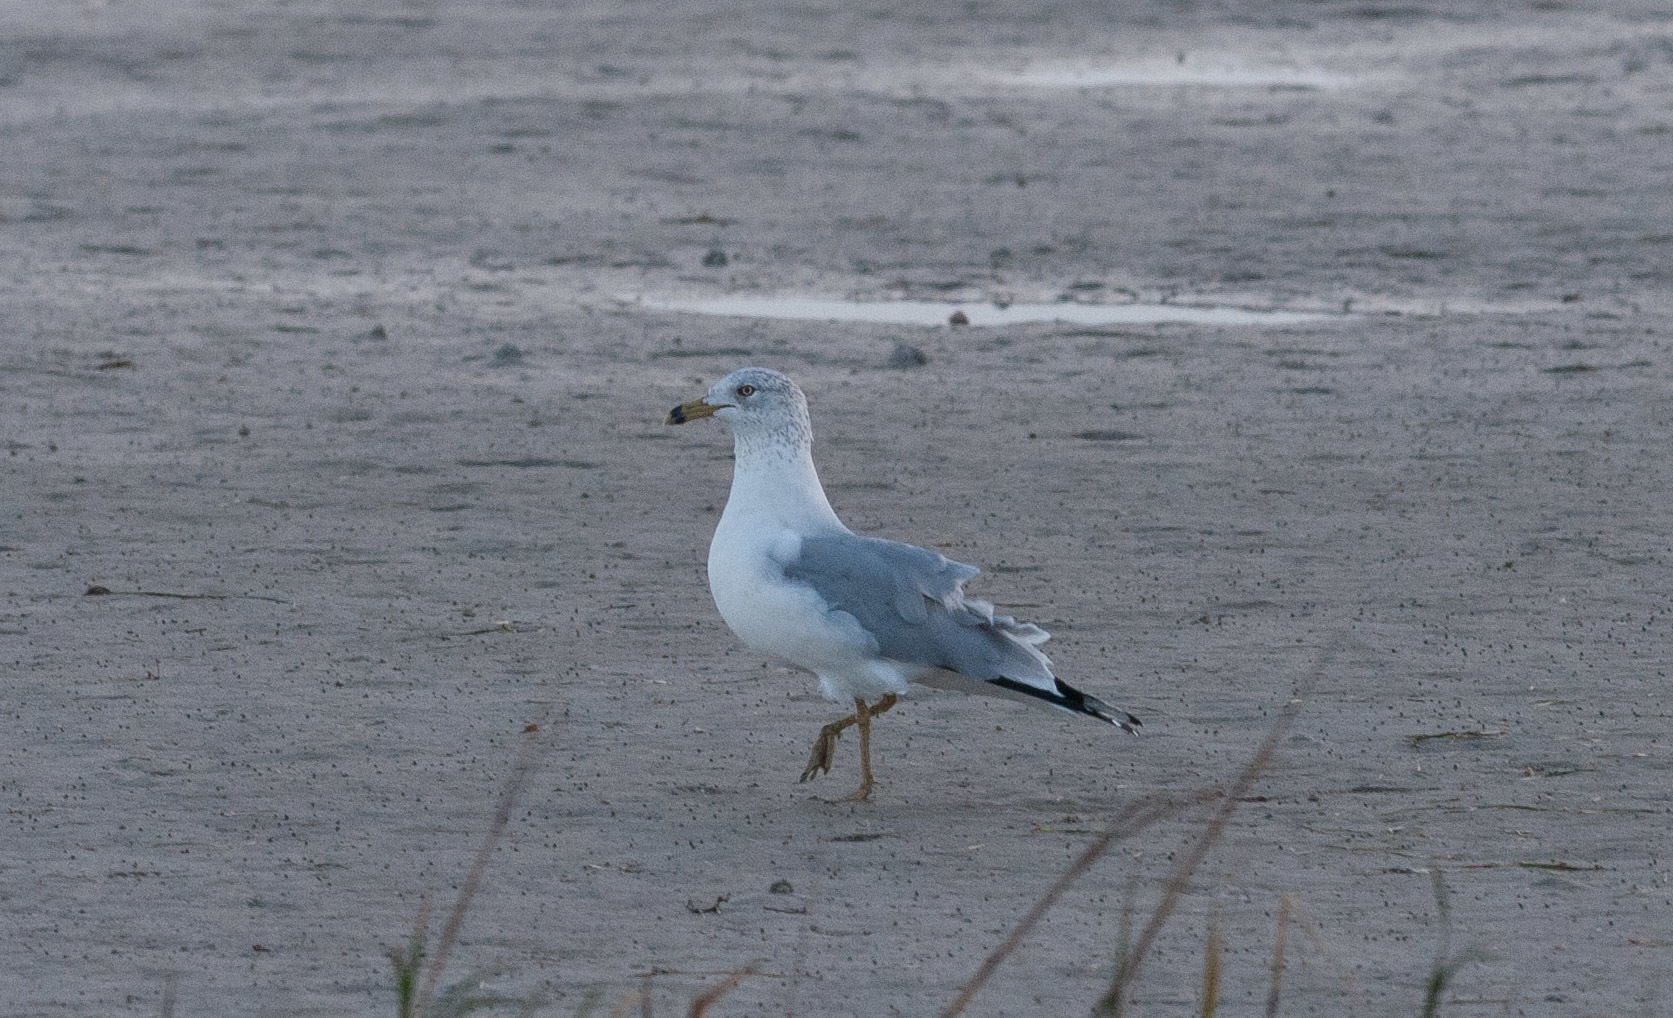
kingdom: Animalia
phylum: Chordata
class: Aves
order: Charadriiformes
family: Laridae
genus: Larus
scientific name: Larus delawarensis
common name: Ring-billed gull
